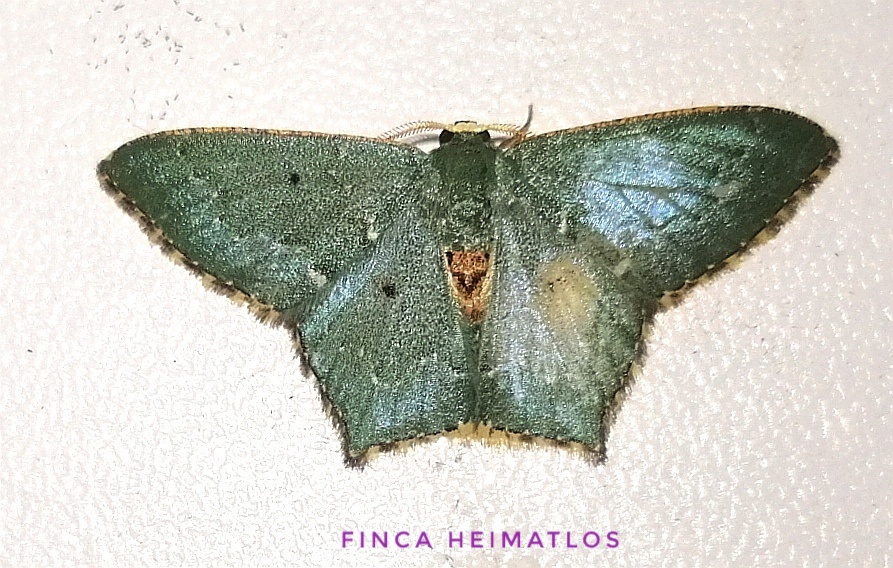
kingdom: Animalia
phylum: Arthropoda
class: Insecta
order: Lepidoptera
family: Geometridae
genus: Chloropteryx
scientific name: Chloropteryx nordicaria
